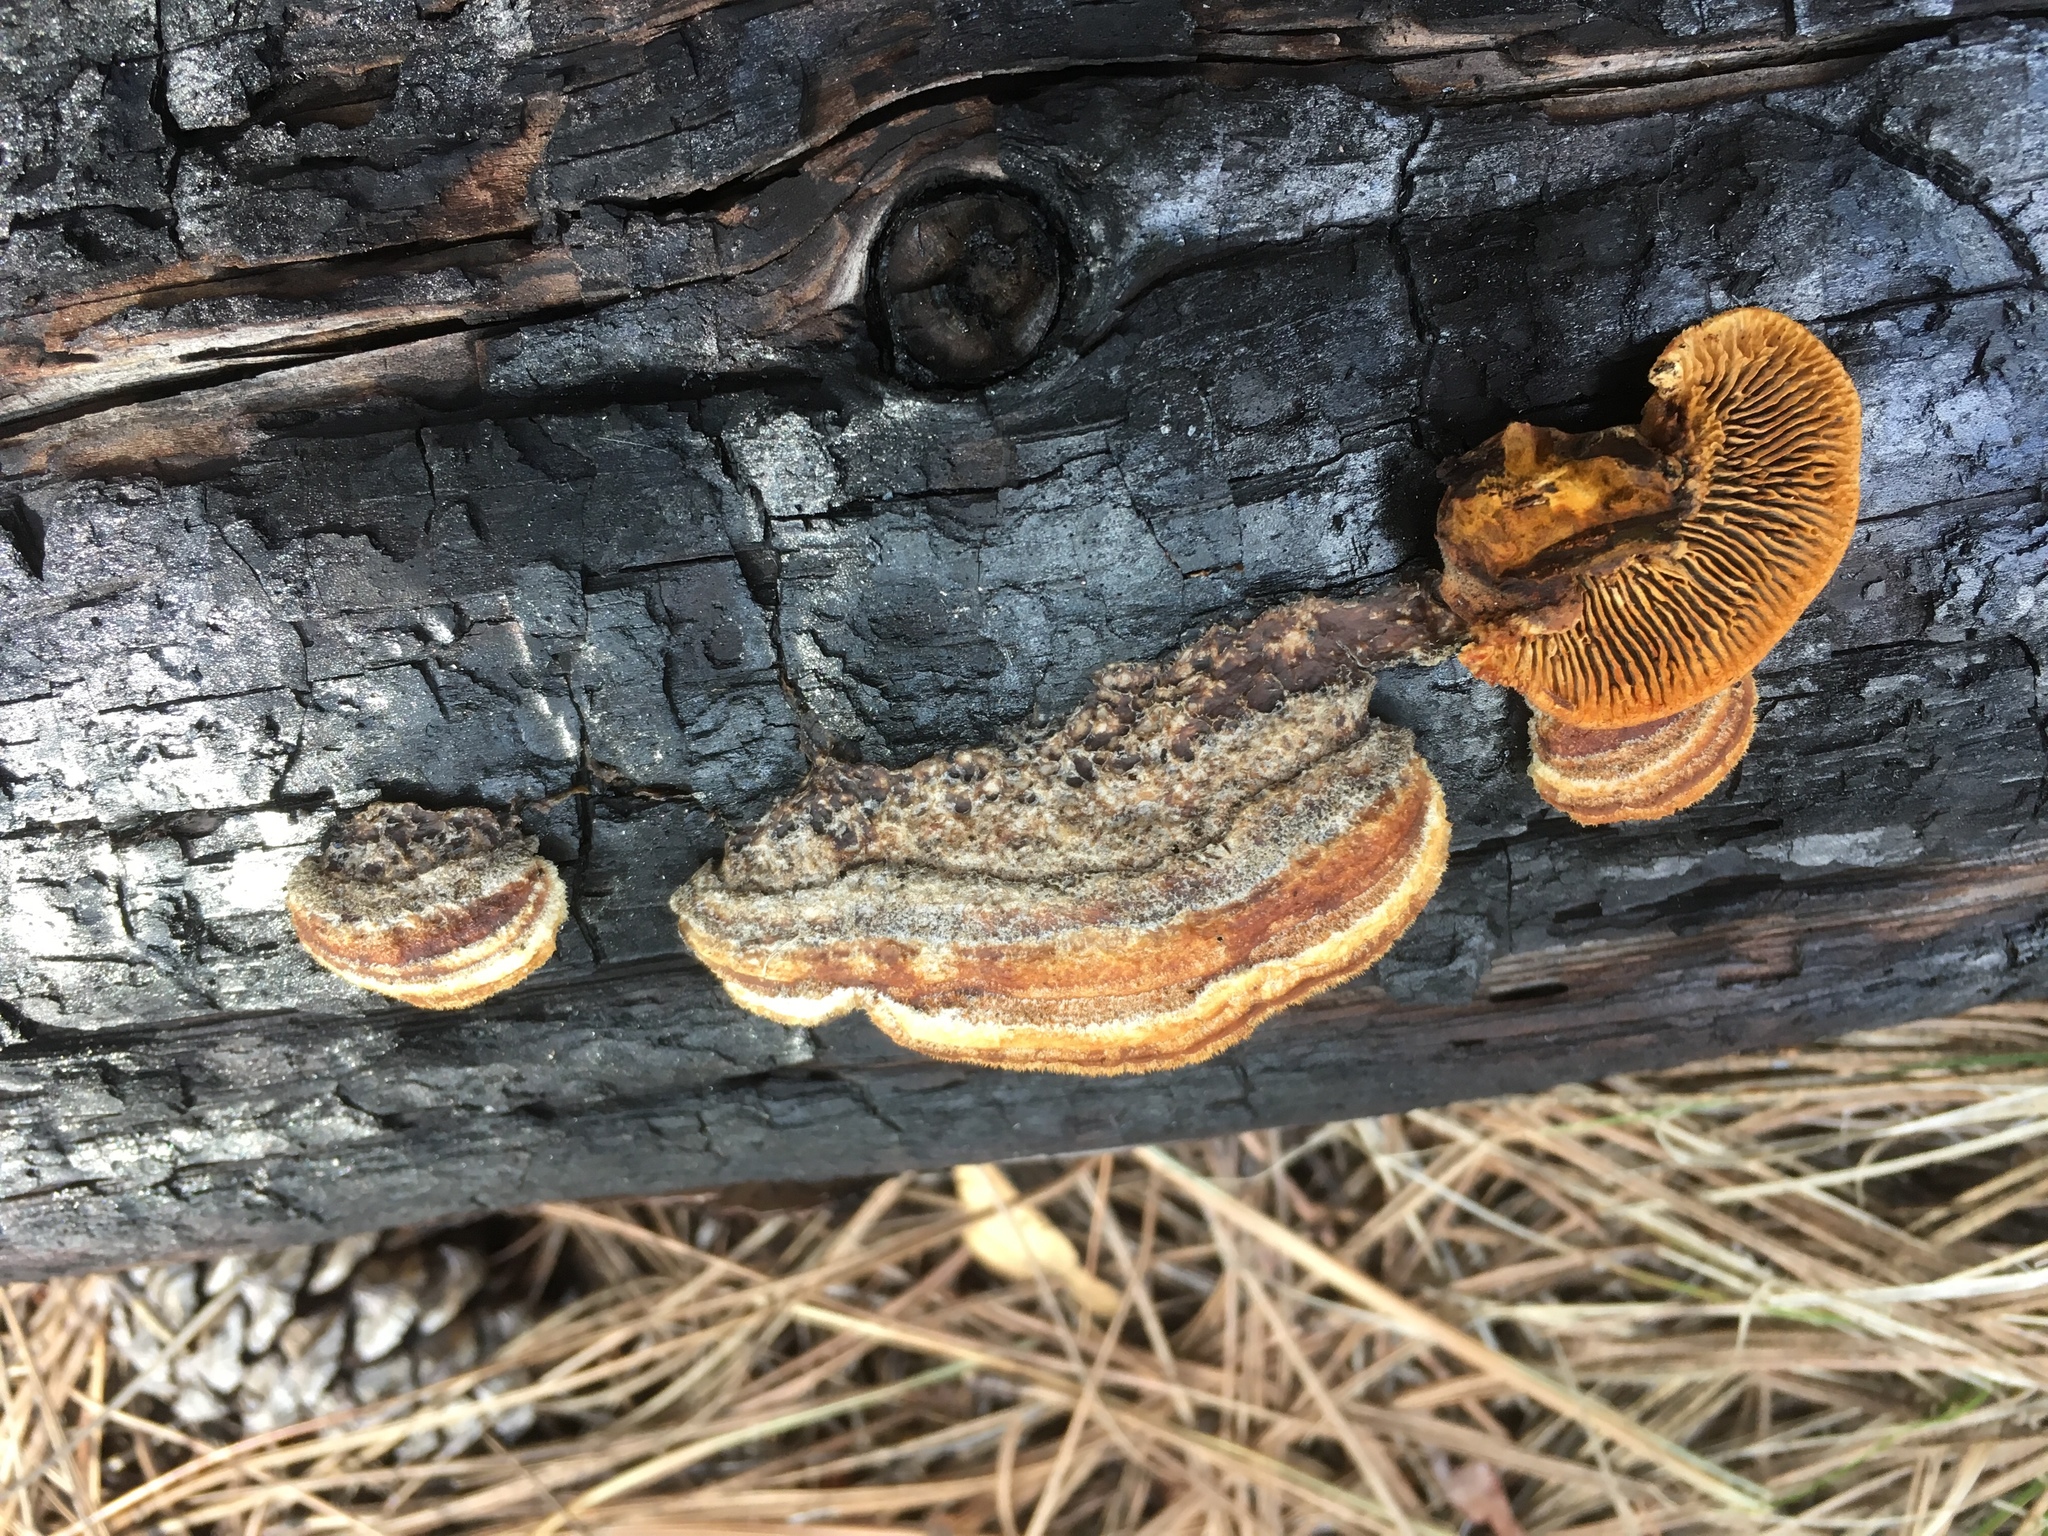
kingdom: Fungi
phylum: Basidiomycota
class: Agaricomycetes
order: Gloeophyllales
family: Gloeophyllaceae
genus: Gloeophyllum
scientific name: Gloeophyllum sepiarium
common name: Conifer mazegill
